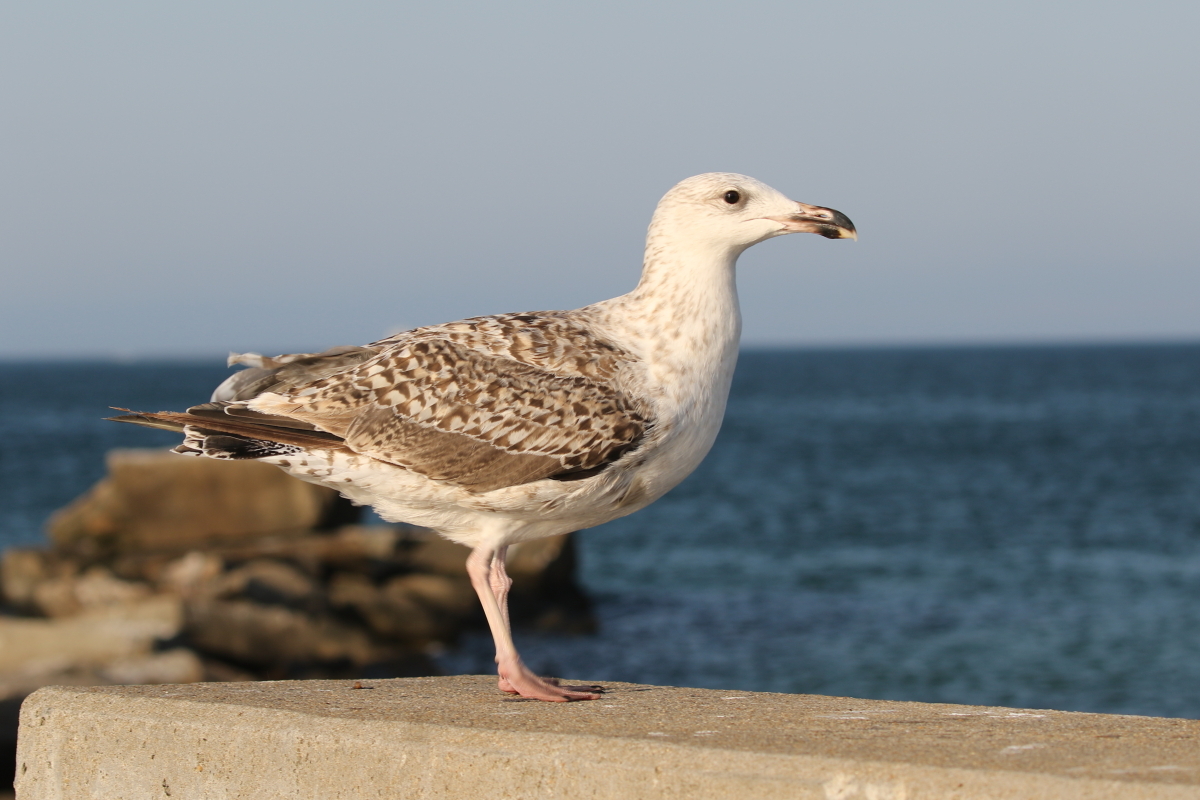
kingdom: Animalia
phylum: Chordata
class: Aves
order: Charadriiformes
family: Laridae
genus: Larus
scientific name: Larus marinus
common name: Great black-backed gull
